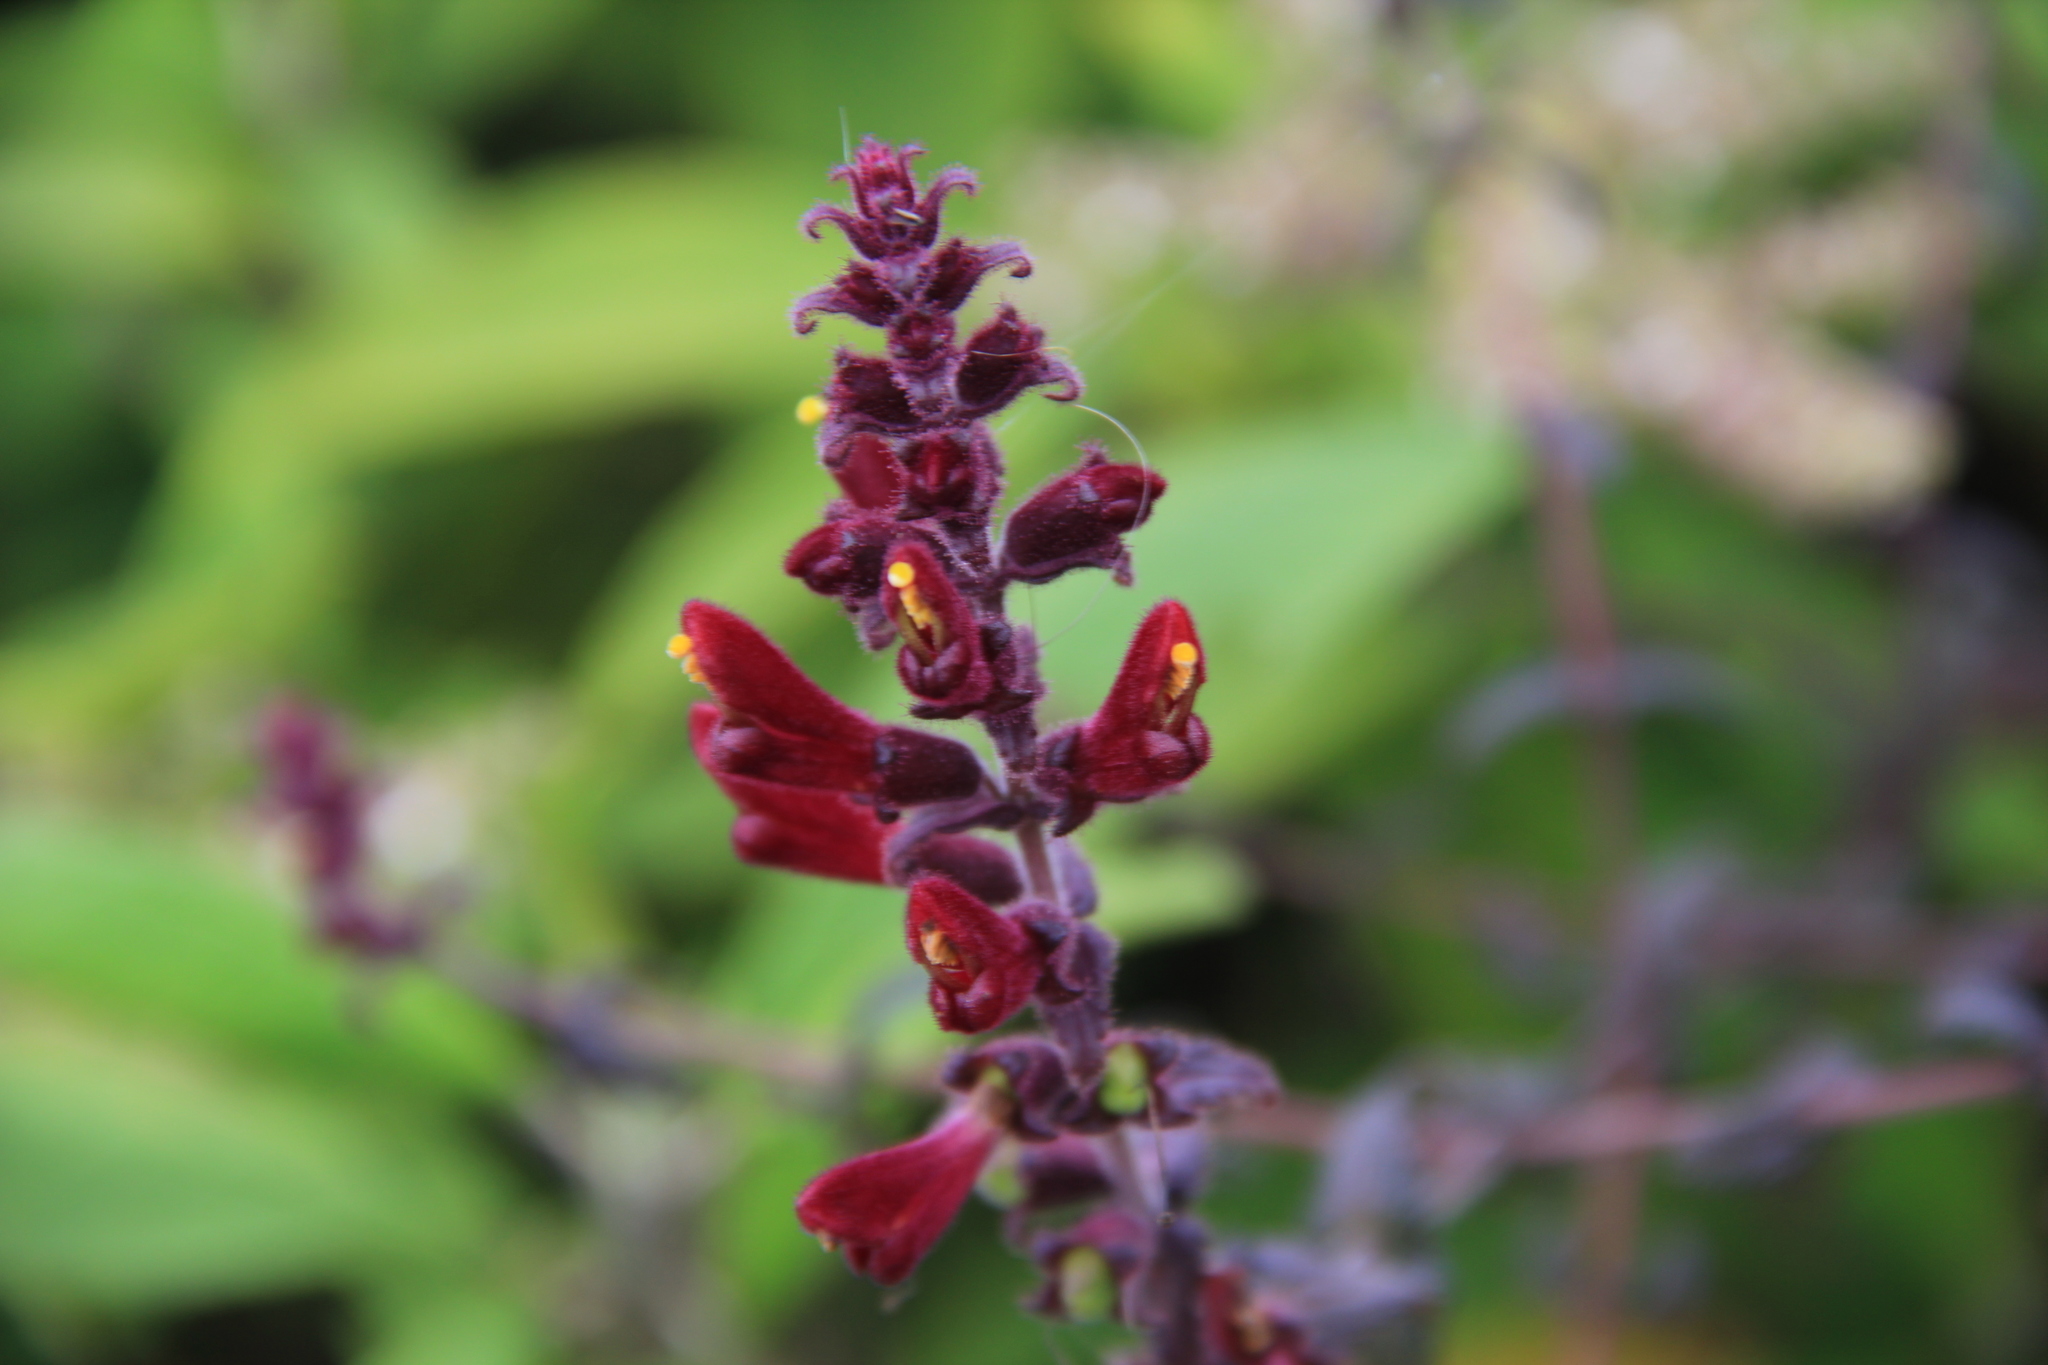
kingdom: Plantae
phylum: Tracheophyta
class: Magnoliopsida
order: Lamiales
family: Orobanchaceae
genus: Neobartsia
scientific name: Neobartsia lydiae
